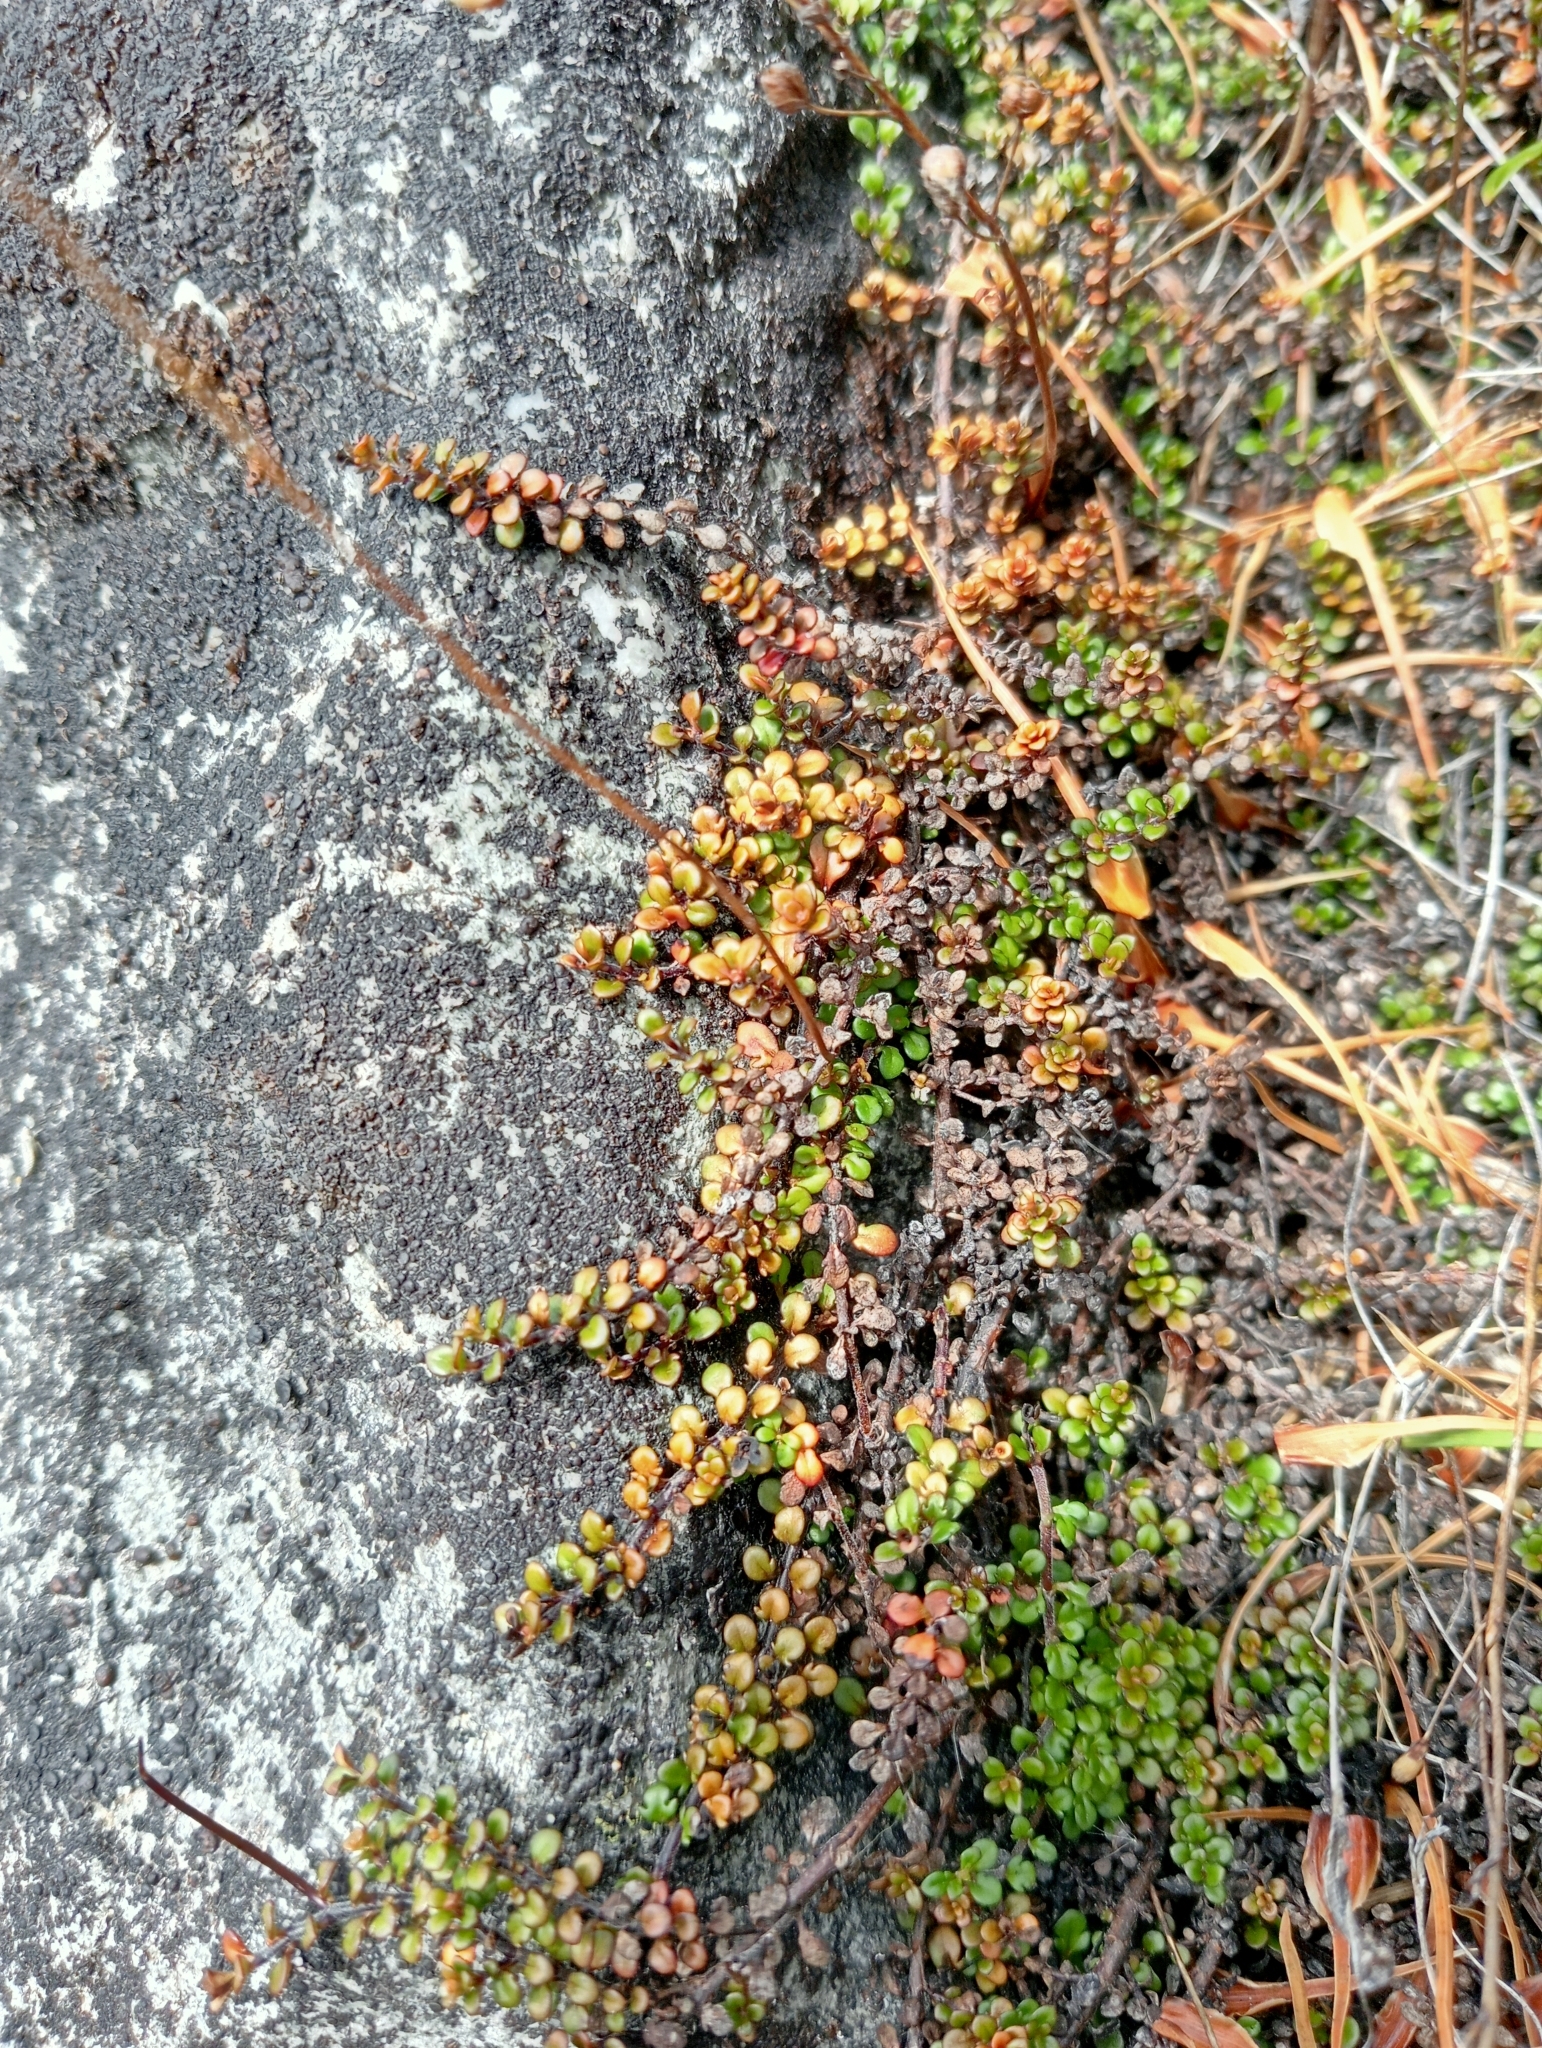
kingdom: Plantae
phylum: Tracheophyta
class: Magnoliopsida
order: Lamiales
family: Plantaginaceae
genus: Veronica
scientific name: Veronica decora
